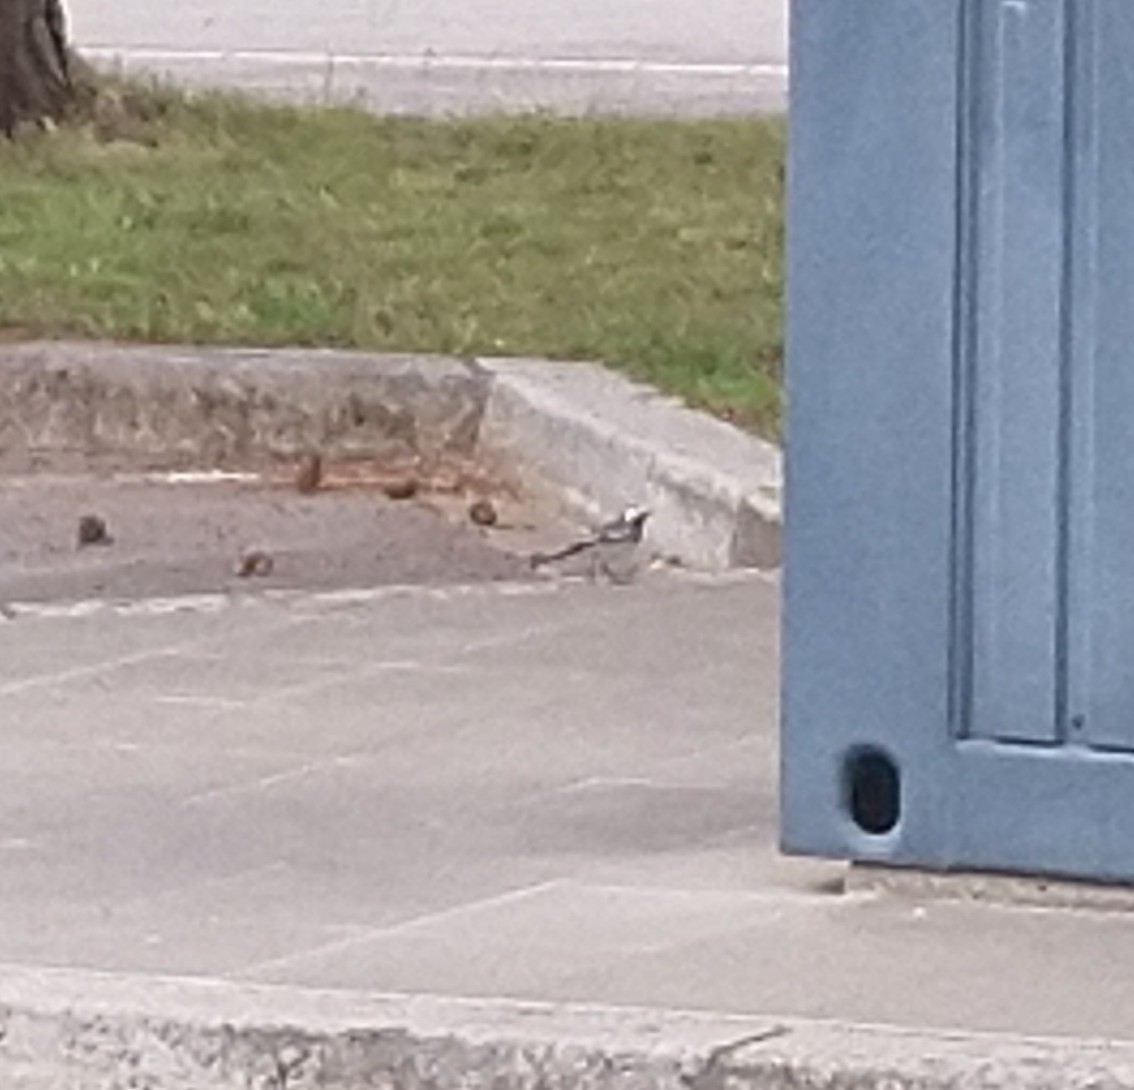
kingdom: Animalia
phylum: Chordata
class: Aves
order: Passeriformes
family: Motacillidae
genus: Motacilla
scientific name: Motacilla alba
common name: White wagtail
